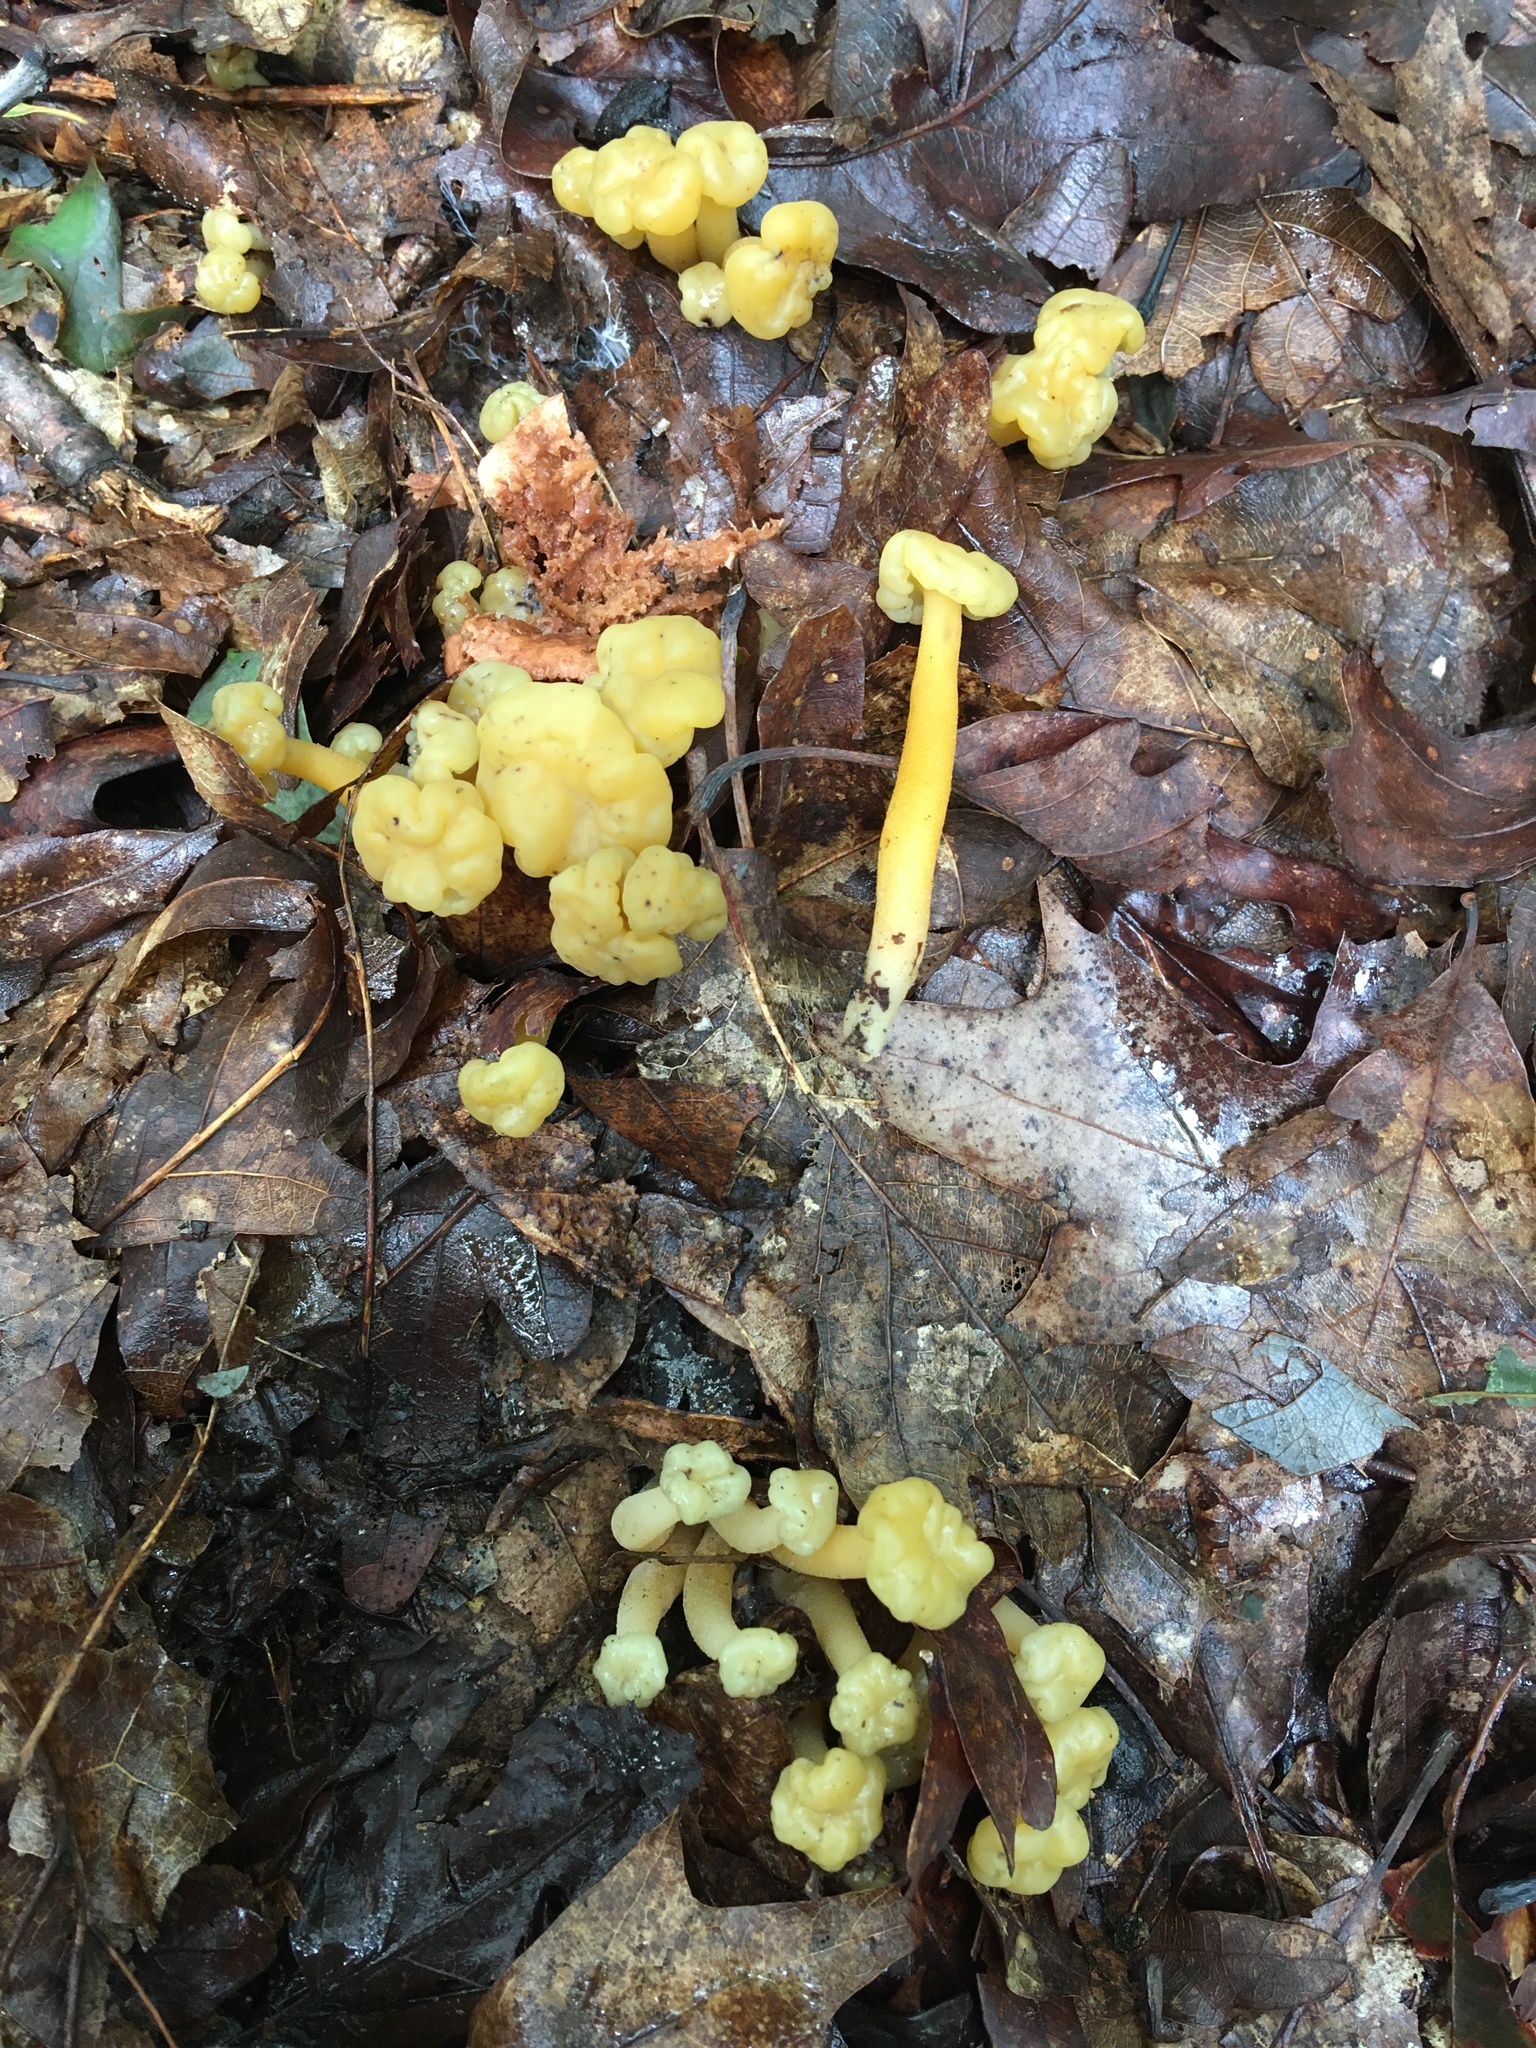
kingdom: Fungi
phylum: Ascomycota
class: Leotiomycetes
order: Leotiales
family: Leotiaceae
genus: Leotia
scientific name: Leotia lubrica
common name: Jellybaby
